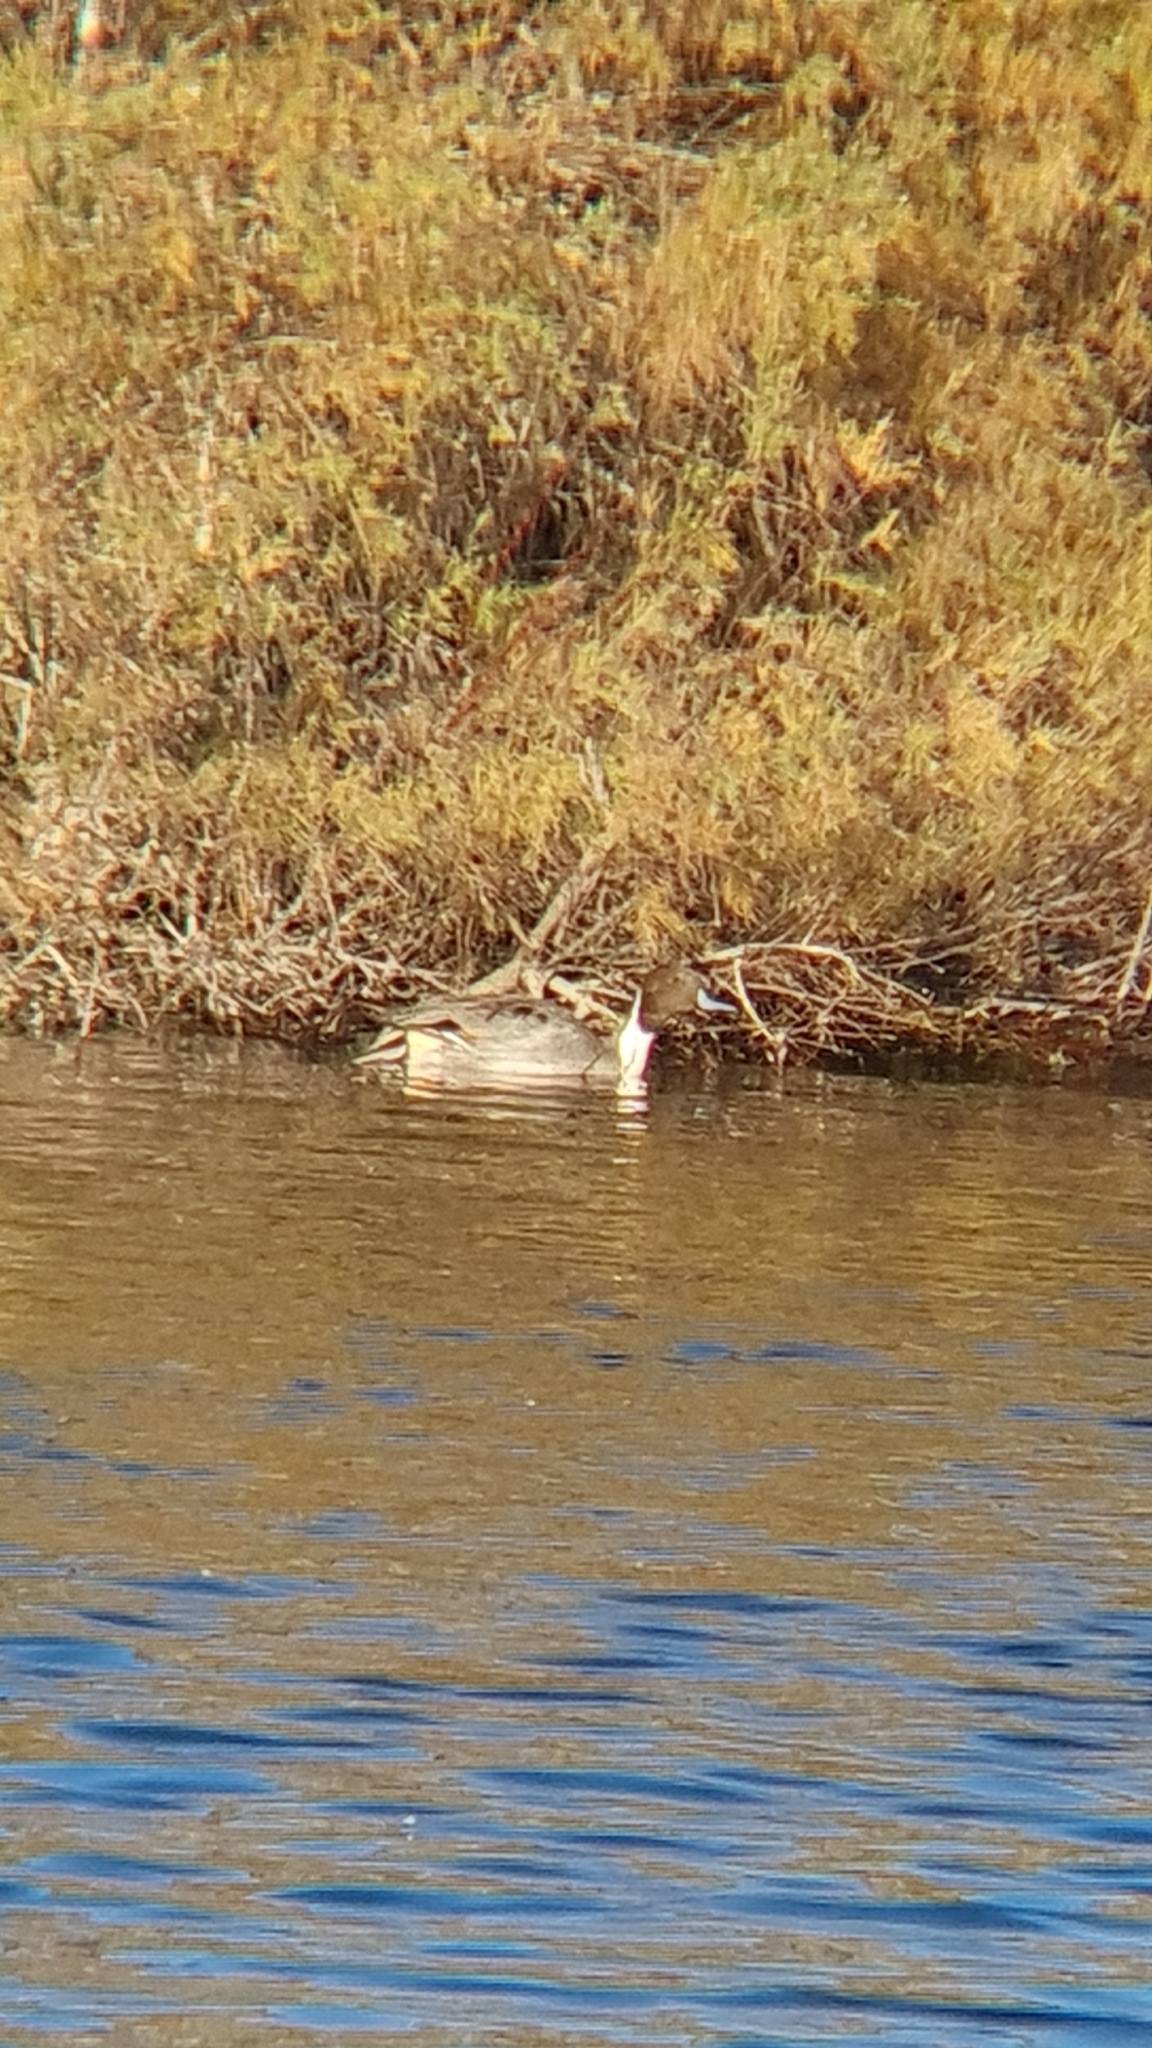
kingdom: Animalia
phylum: Chordata
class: Aves
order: Anseriformes
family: Anatidae
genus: Anas
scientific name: Anas acuta
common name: Northern pintail
